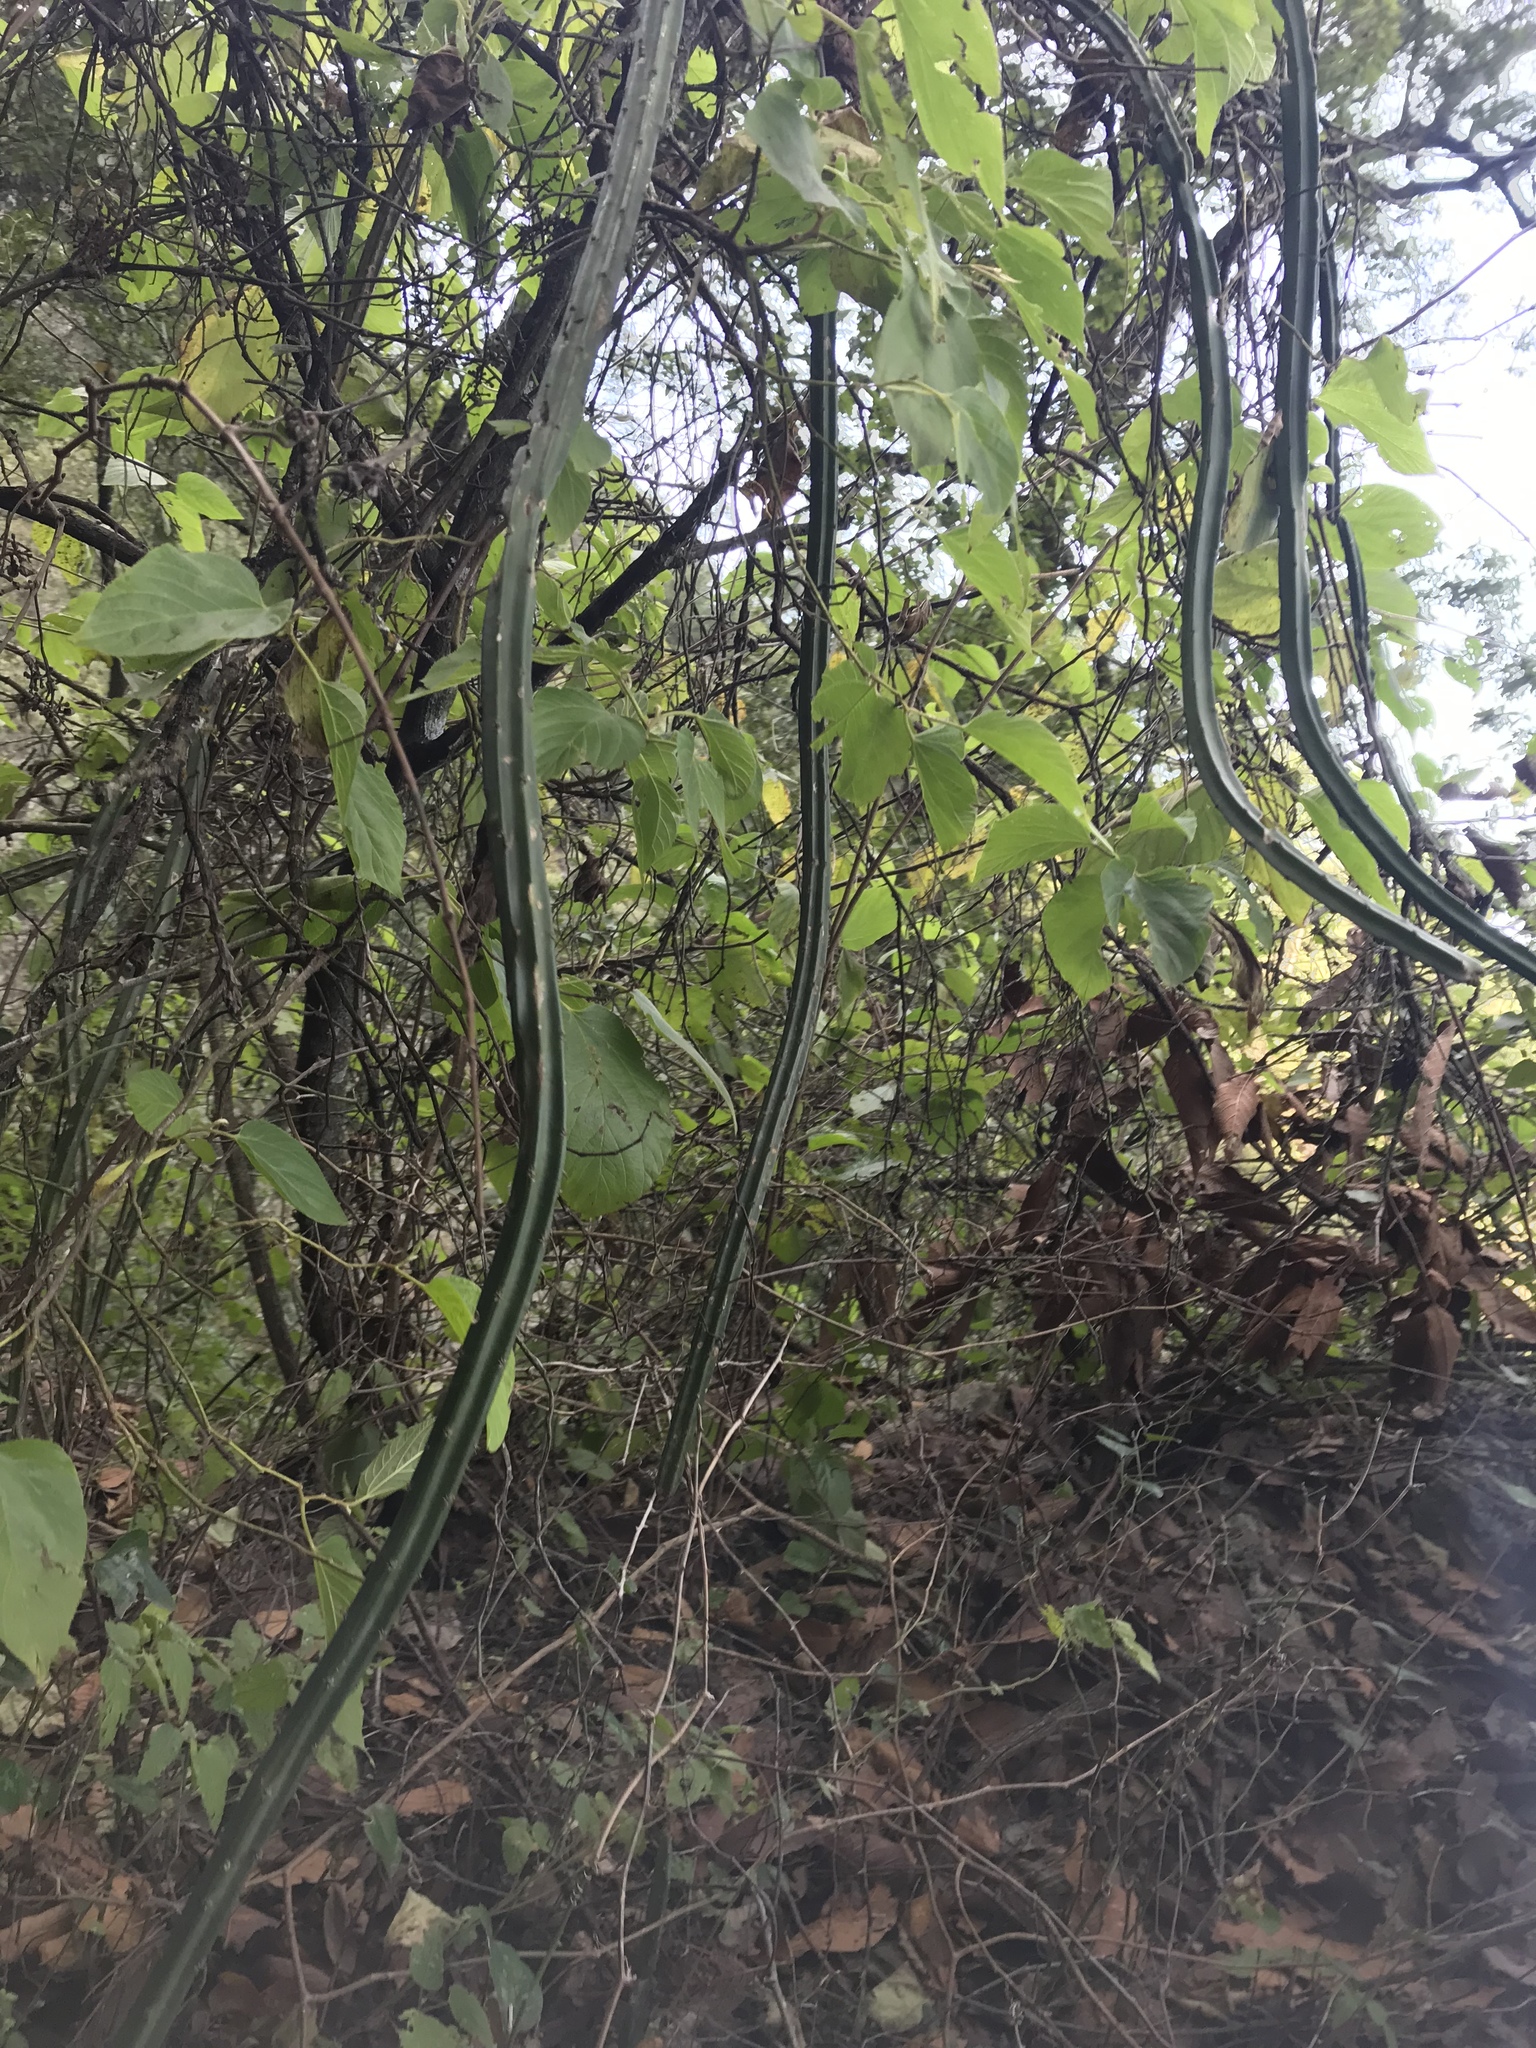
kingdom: Plantae
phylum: Tracheophyta
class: Magnoliopsida
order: Caryophyllales
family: Cactaceae
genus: Selenicereus
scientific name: Selenicereus spinulosus
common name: Nightblooming cereus
